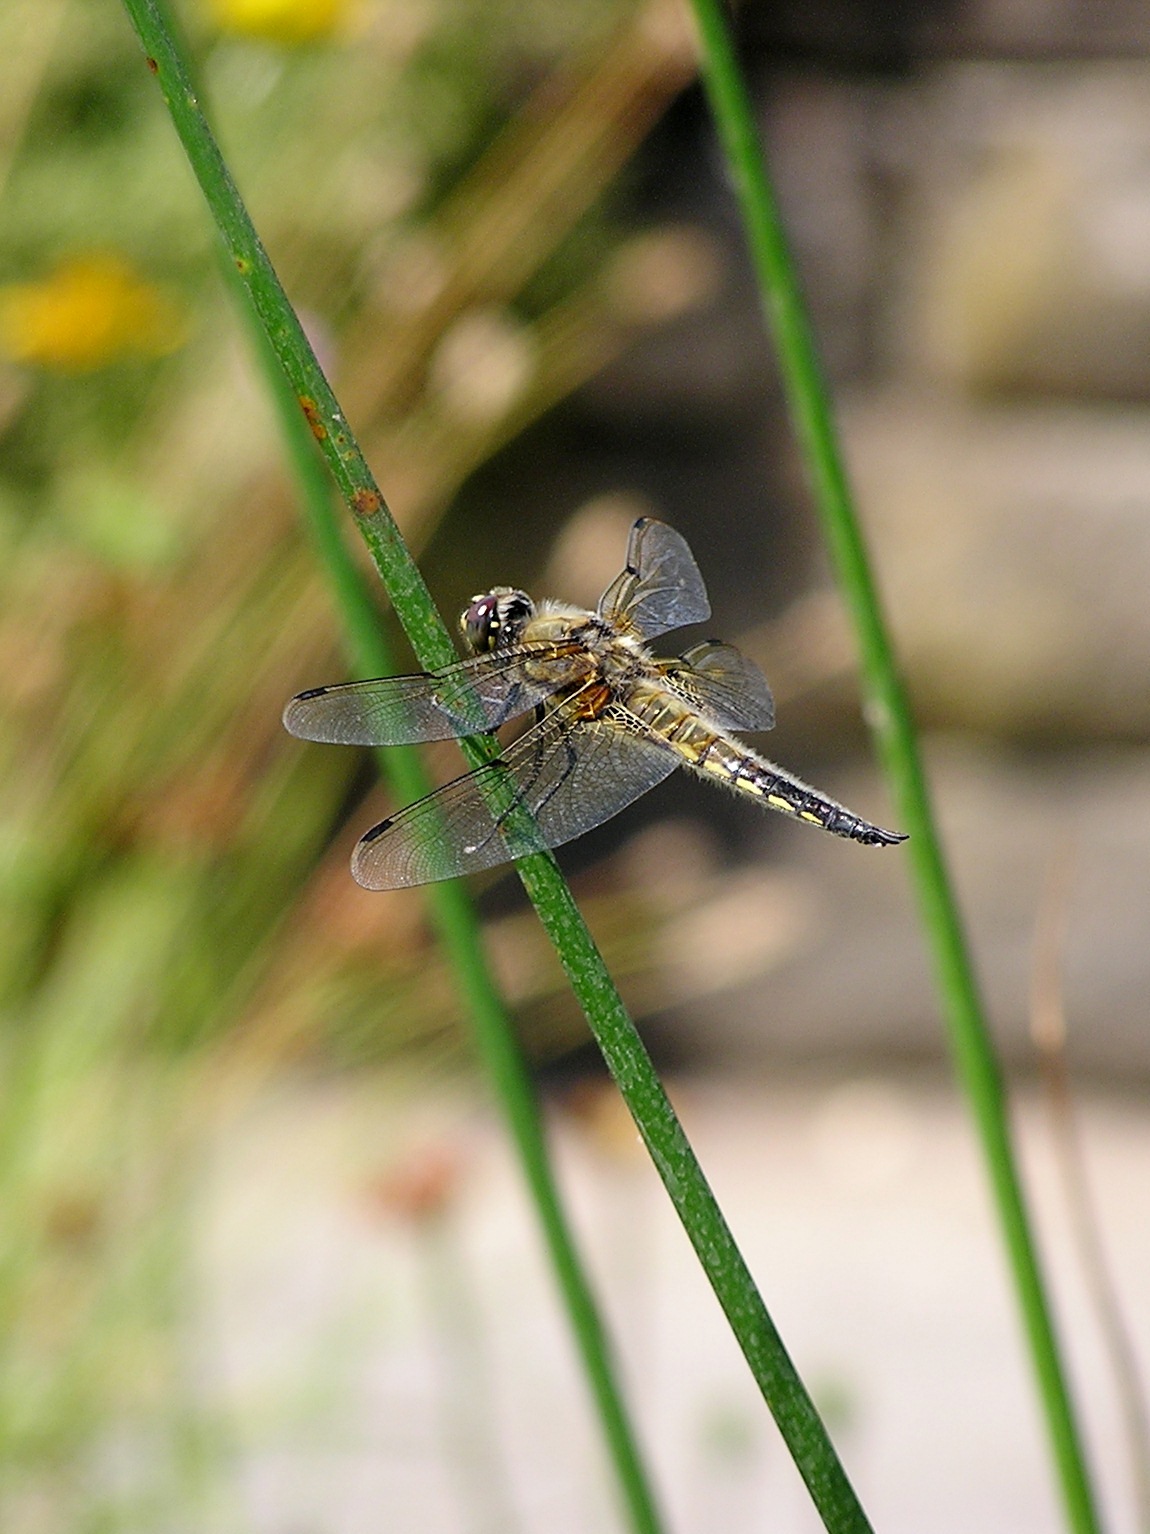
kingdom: Animalia
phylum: Arthropoda
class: Insecta
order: Odonata
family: Libellulidae
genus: Libellula
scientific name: Libellula quadrimaculata
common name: Four-spotted chaser
